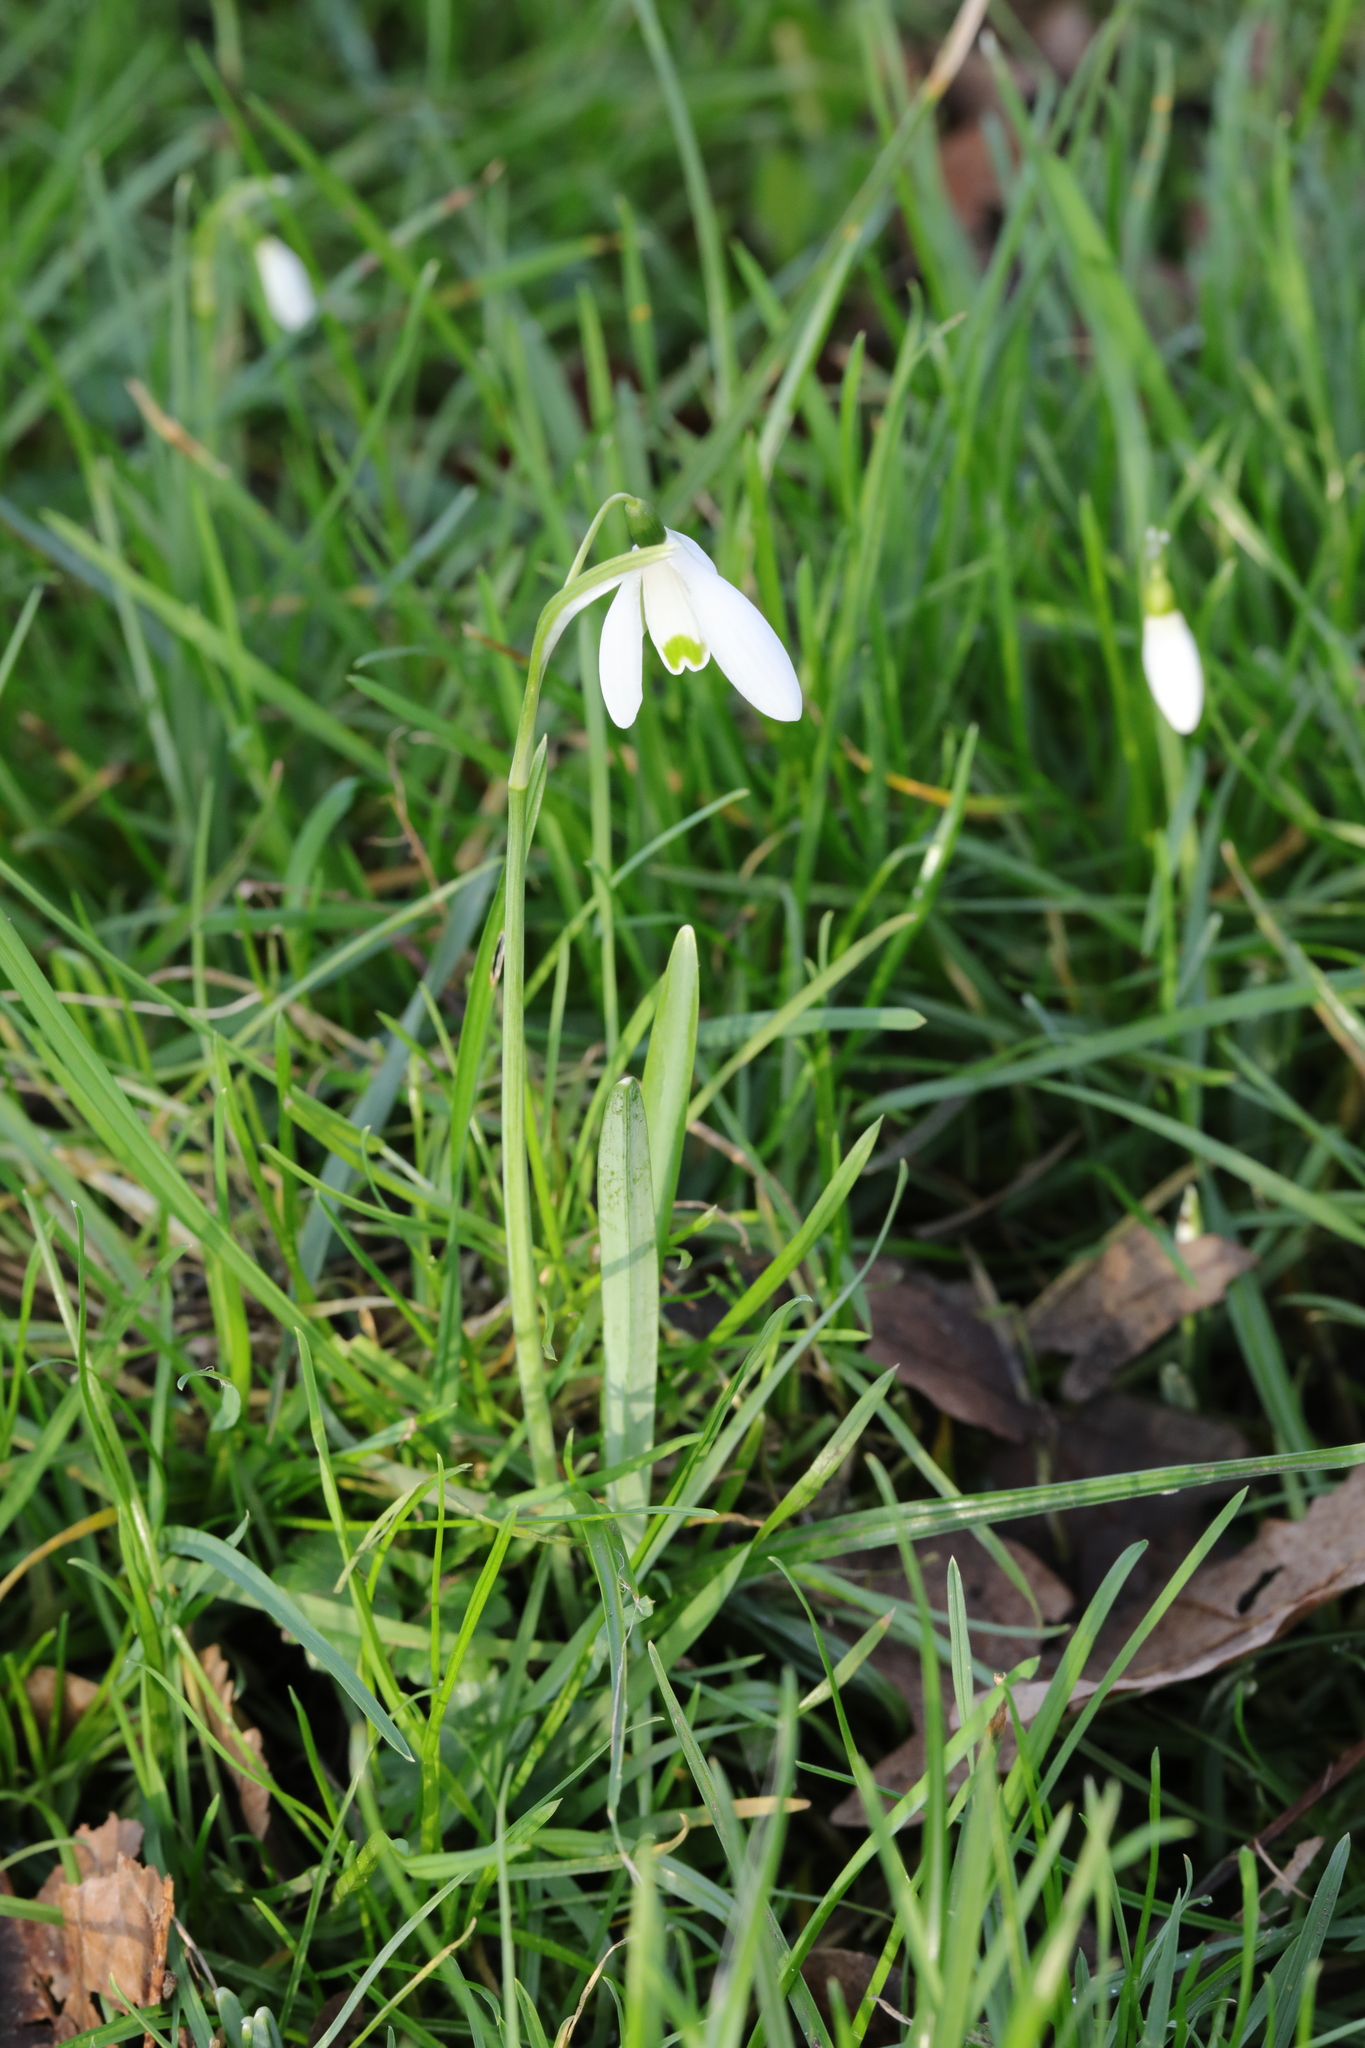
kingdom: Plantae
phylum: Tracheophyta
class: Liliopsida
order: Asparagales
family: Amaryllidaceae
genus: Galanthus
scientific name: Galanthus nivalis
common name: Snowdrop
